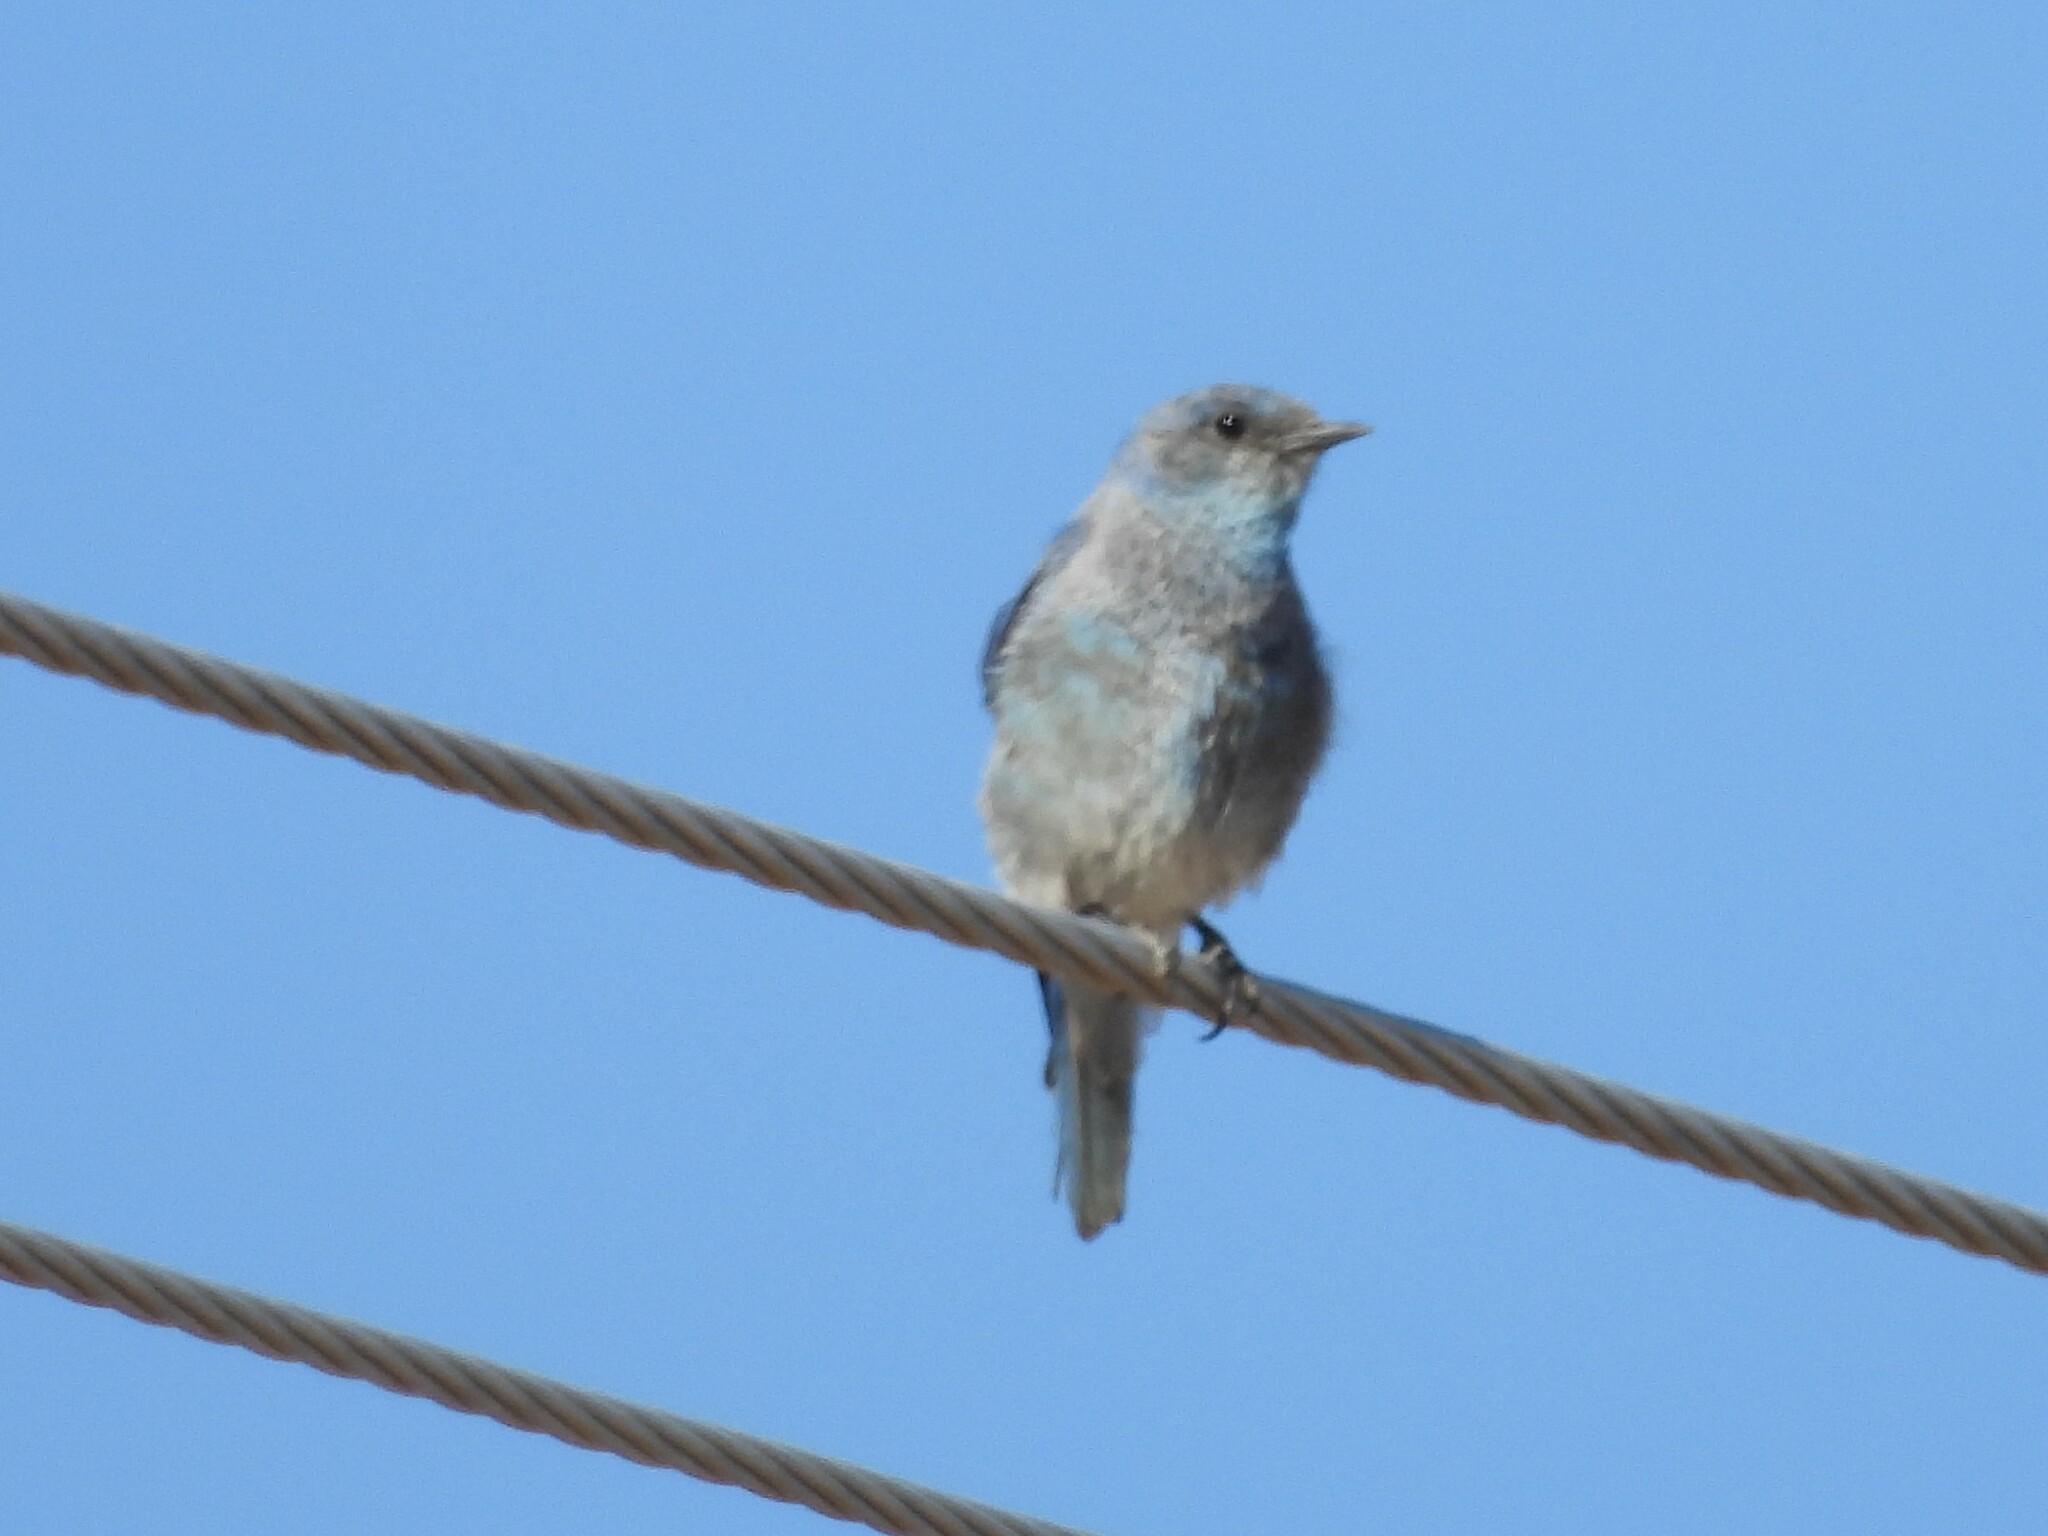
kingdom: Animalia
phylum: Chordata
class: Aves
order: Passeriformes
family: Turdidae
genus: Sialia
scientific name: Sialia currucoides
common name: Mountain bluebird
